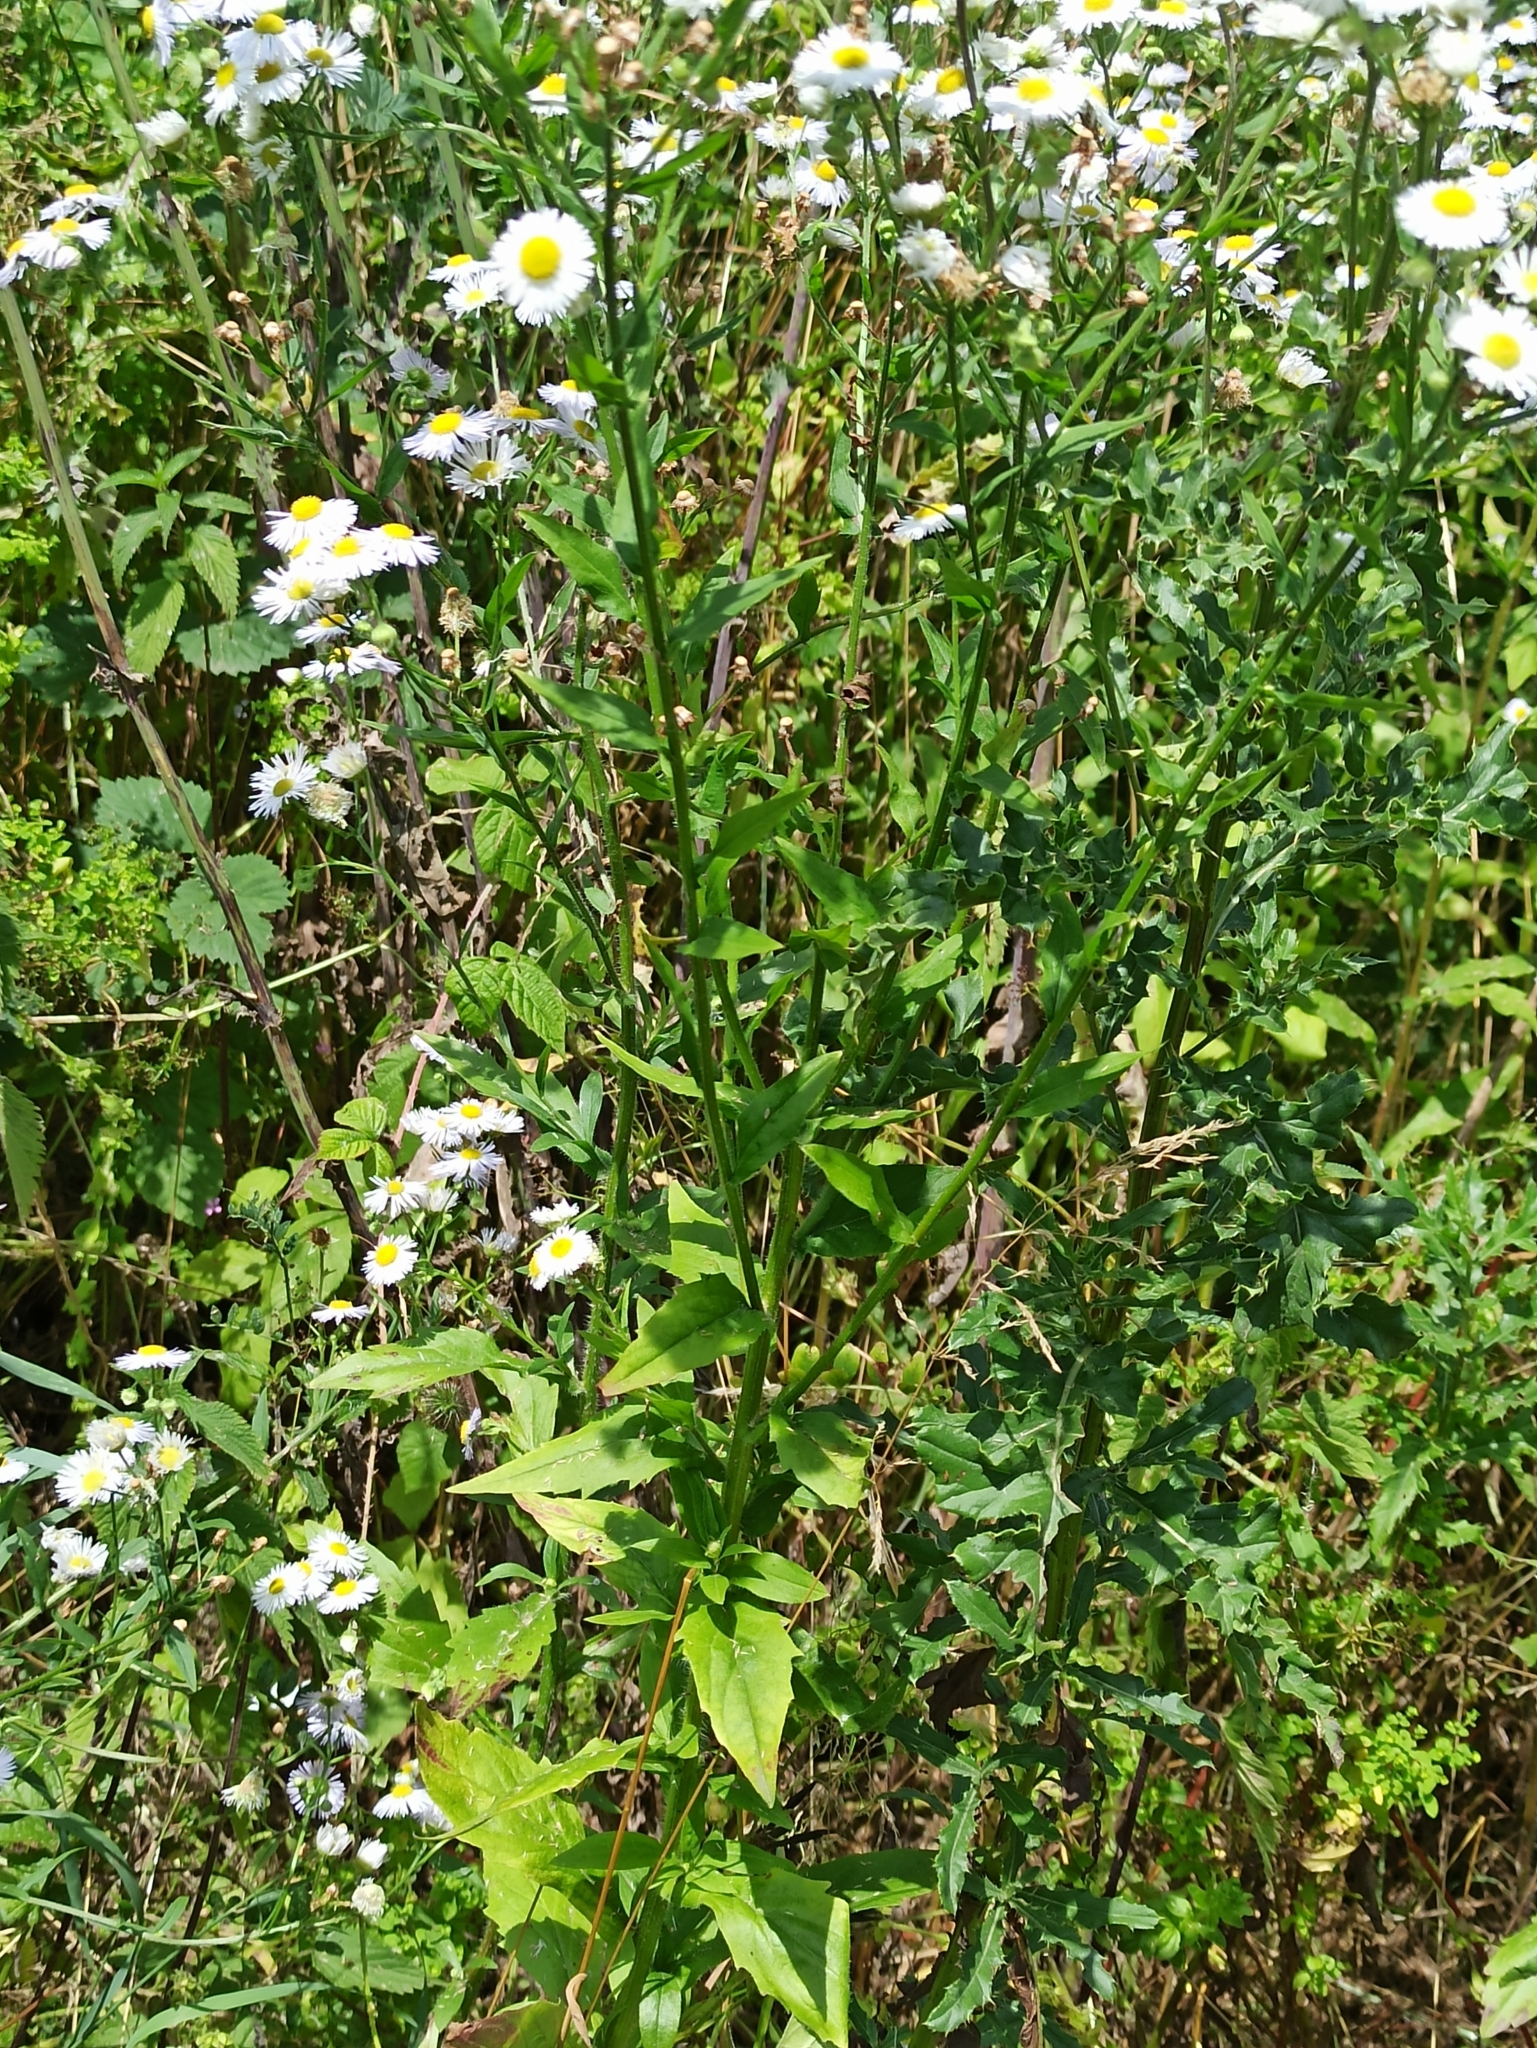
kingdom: Plantae
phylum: Tracheophyta
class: Magnoliopsida
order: Asterales
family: Asteraceae
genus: Erigeron
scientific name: Erigeron annuus
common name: Tall fleabane
